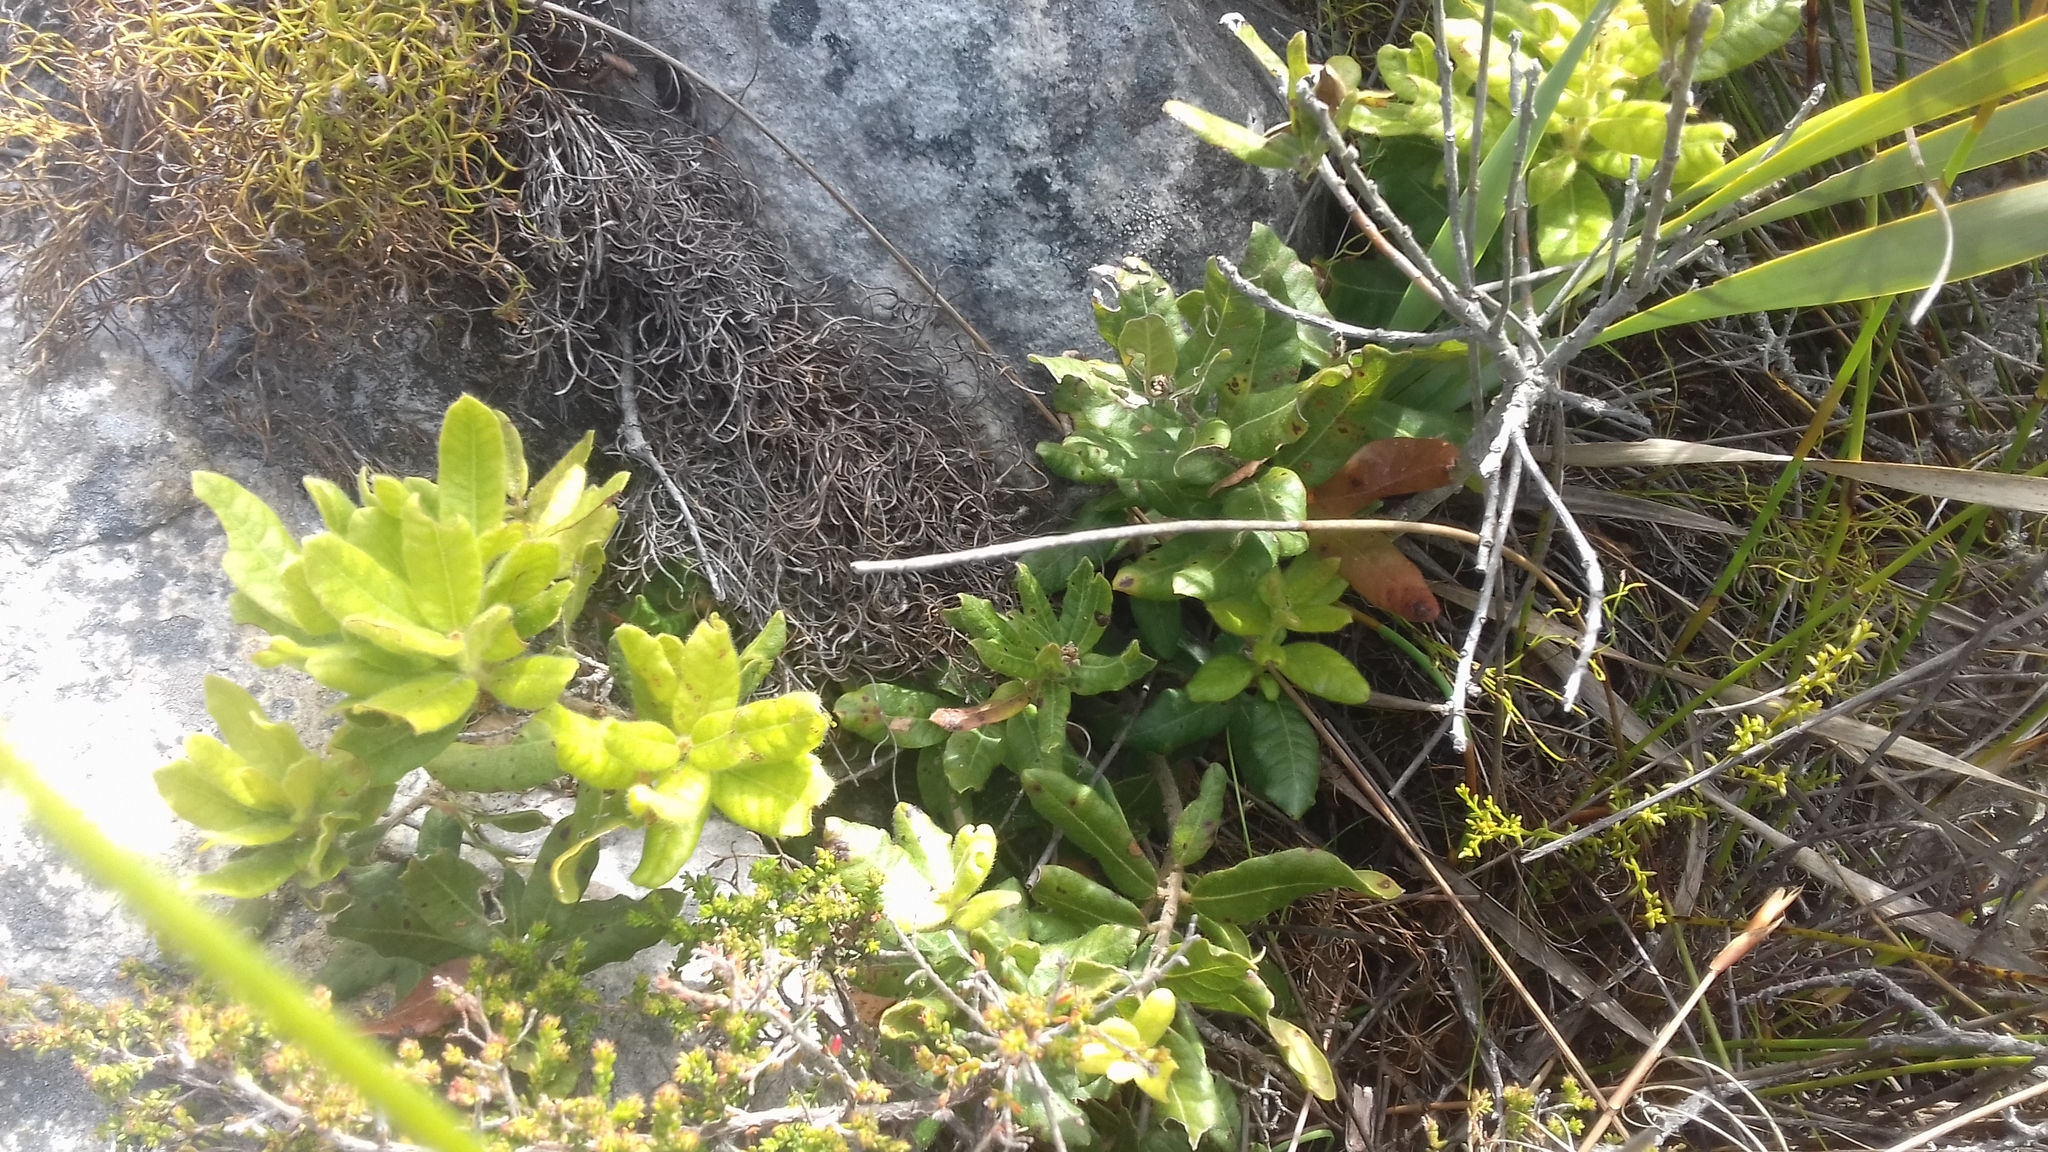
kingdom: Plantae
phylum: Tracheophyta
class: Magnoliopsida
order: Fagales
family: Myricaceae
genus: Morella
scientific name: Morella kraussiana
